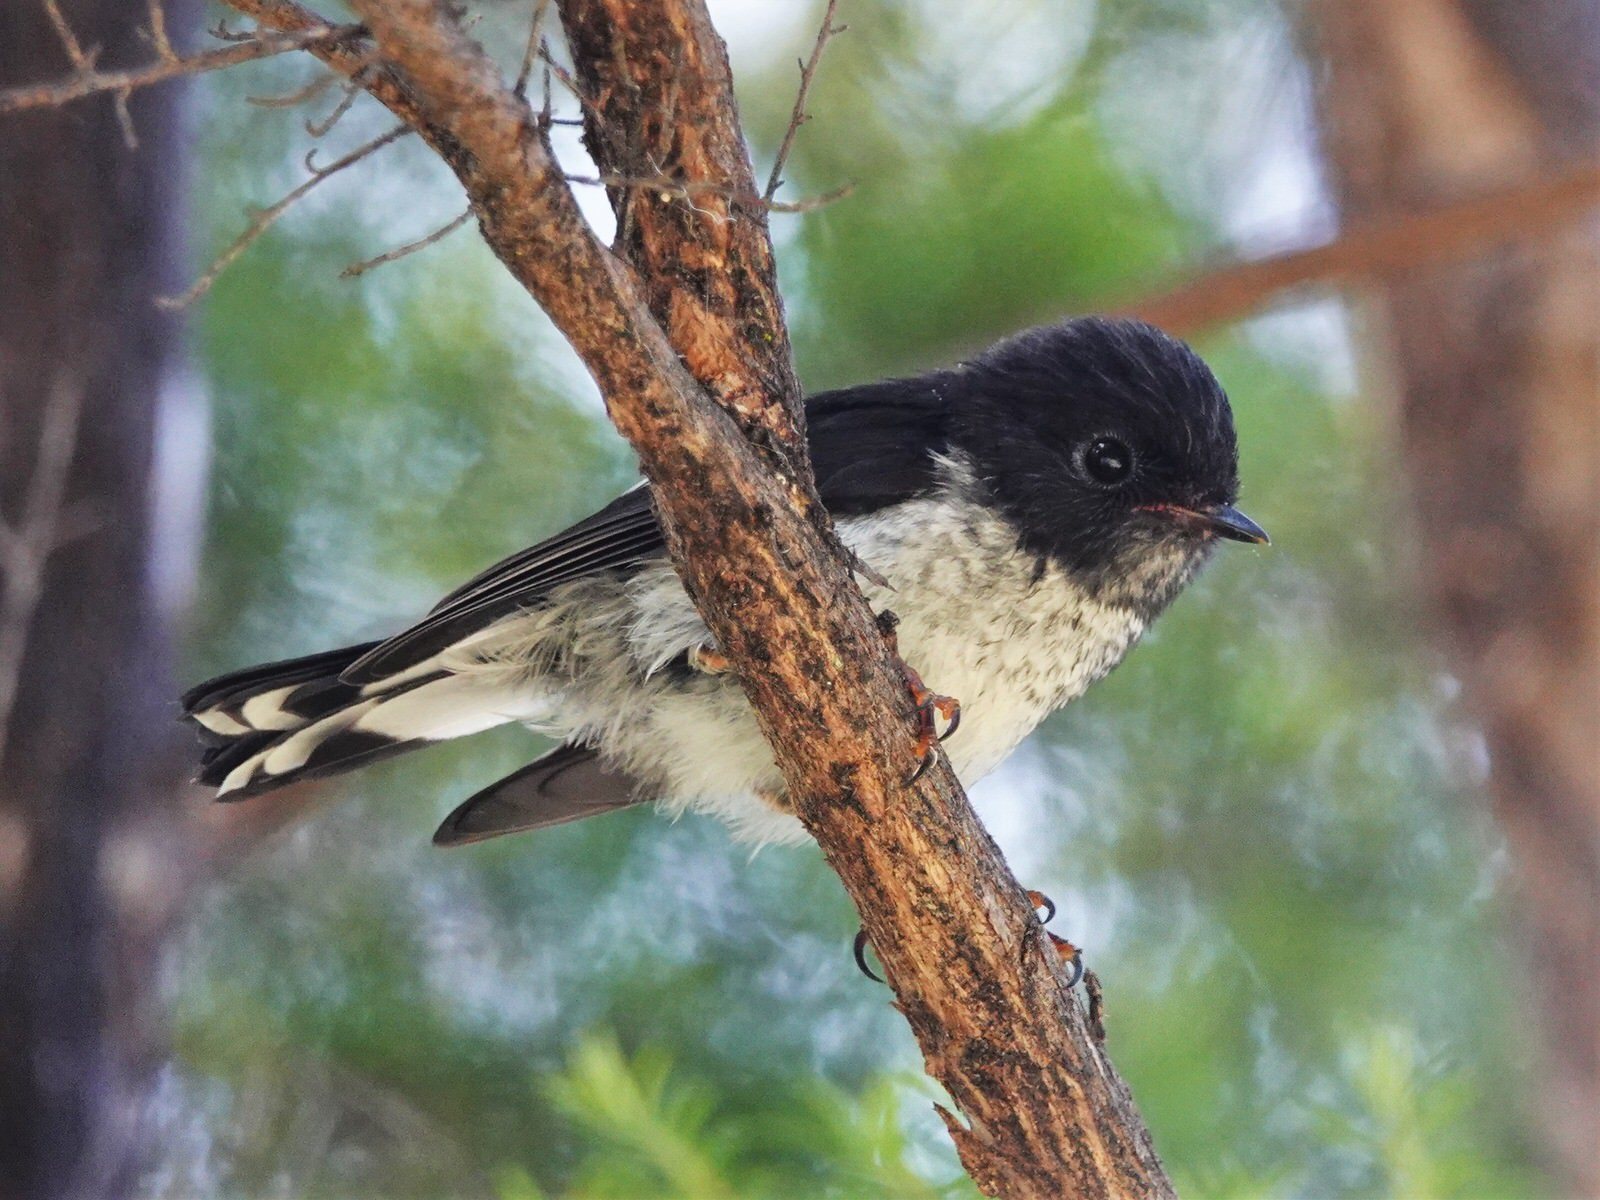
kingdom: Animalia
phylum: Chordata
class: Aves
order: Passeriformes
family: Petroicidae
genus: Petroica
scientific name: Petroica macrocephala
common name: Tomtit
